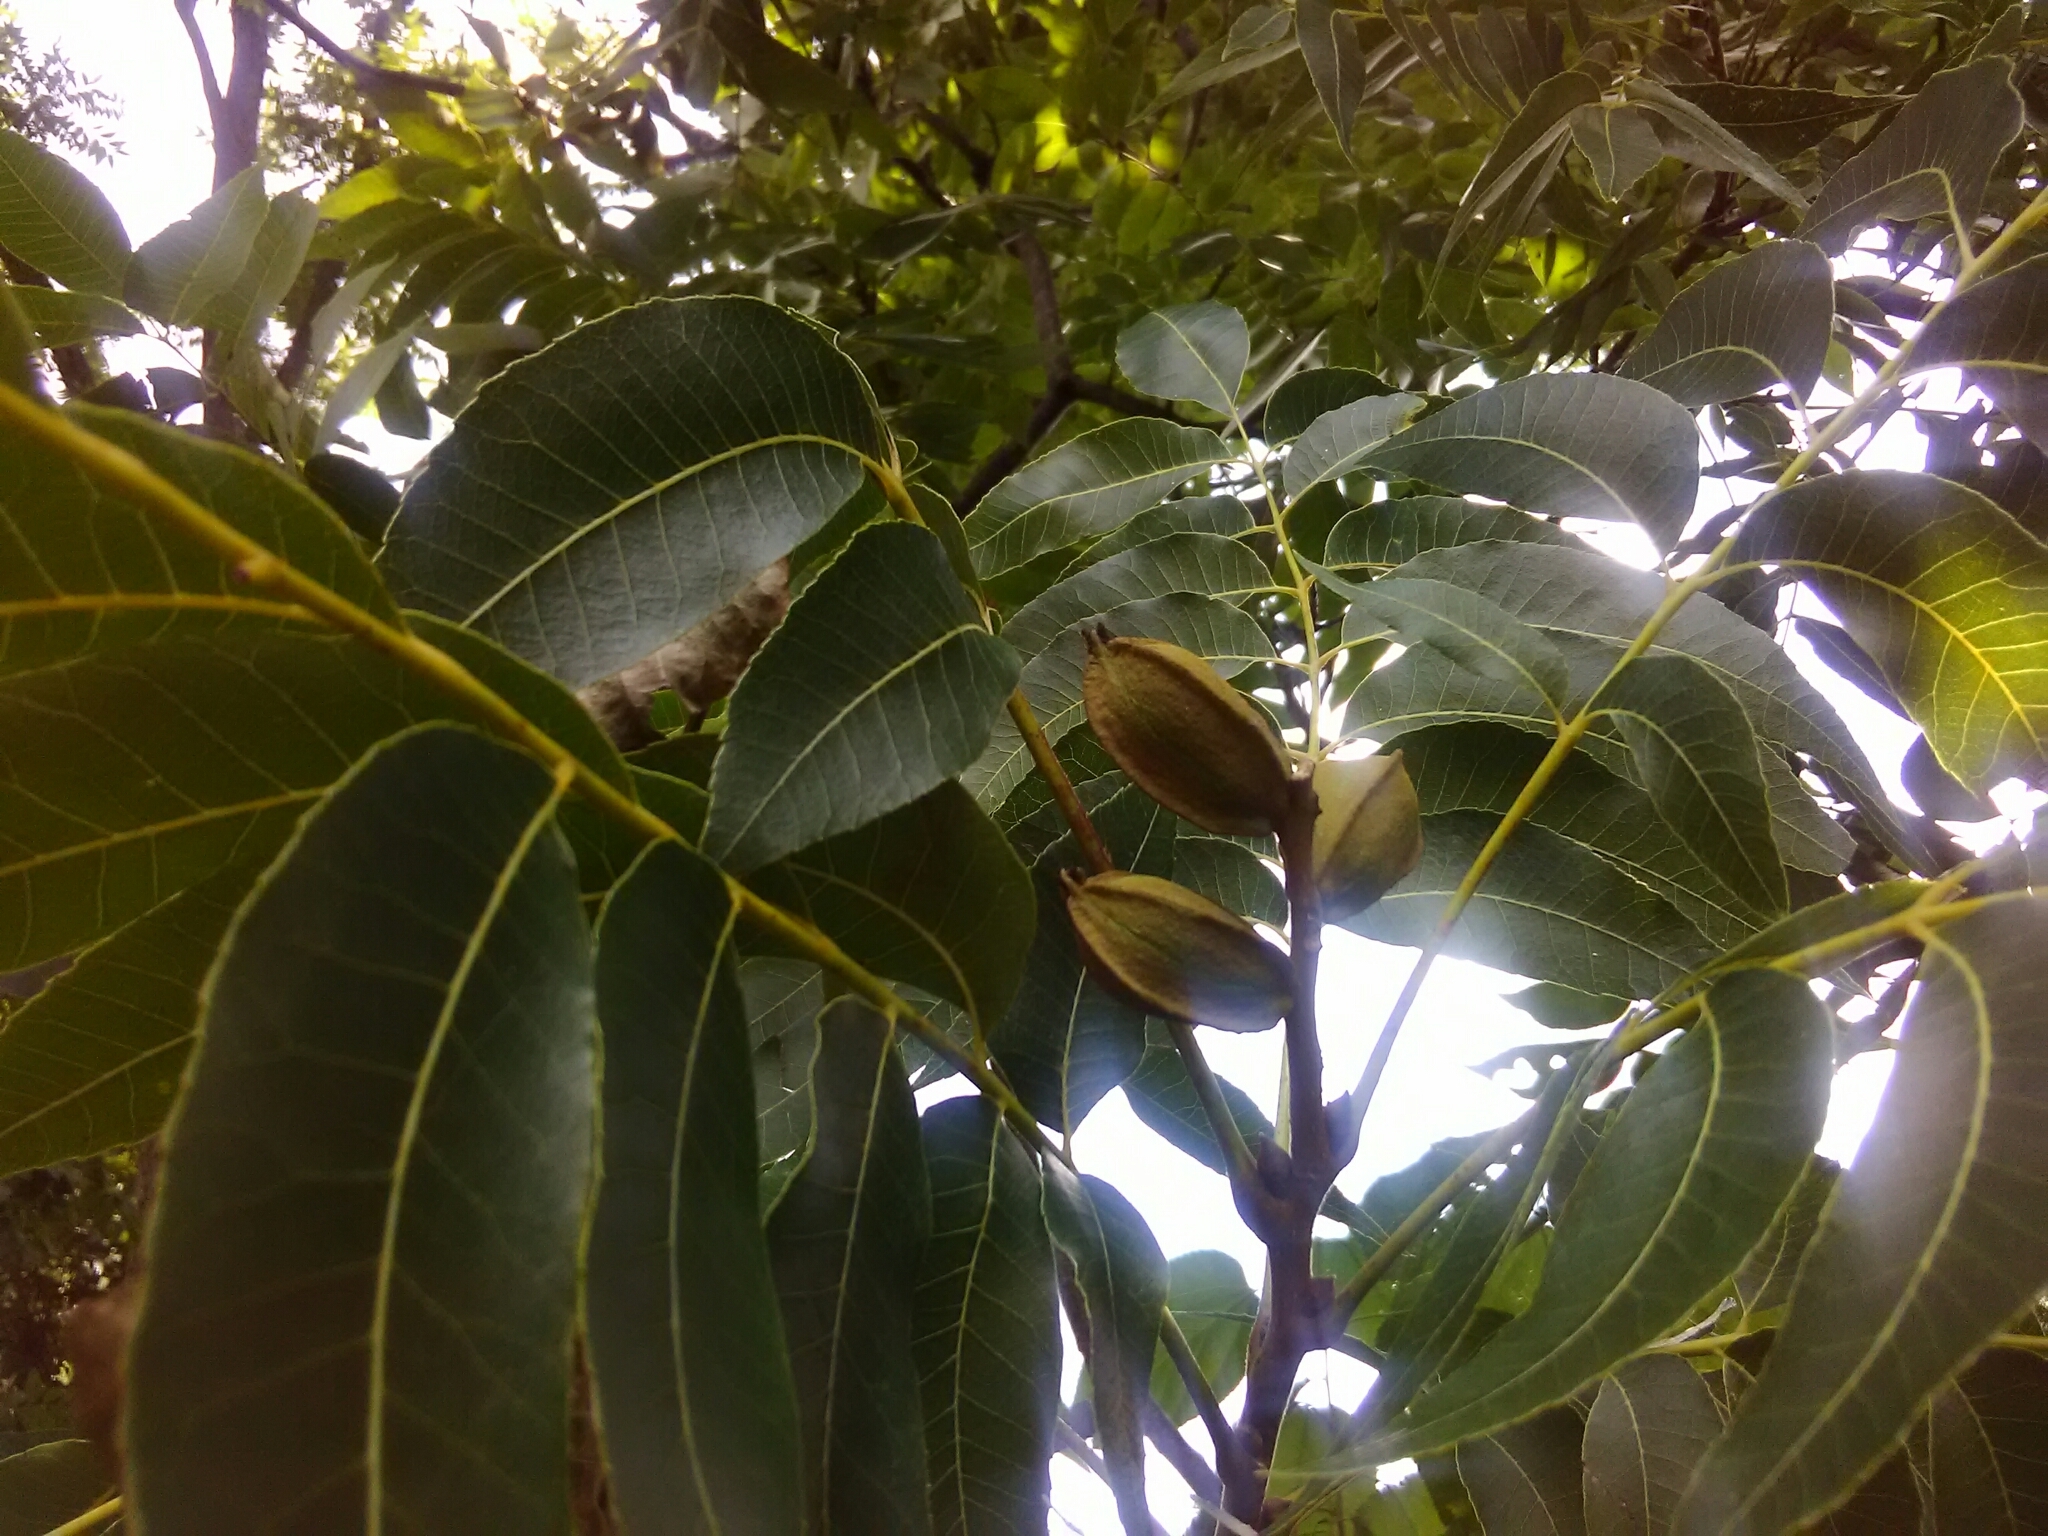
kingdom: Plantae
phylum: Tracheophyta
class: Magnoliopsida
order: Fagales
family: Juglandaceae
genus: Carya
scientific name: Carya illinoinensis
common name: Pecan
